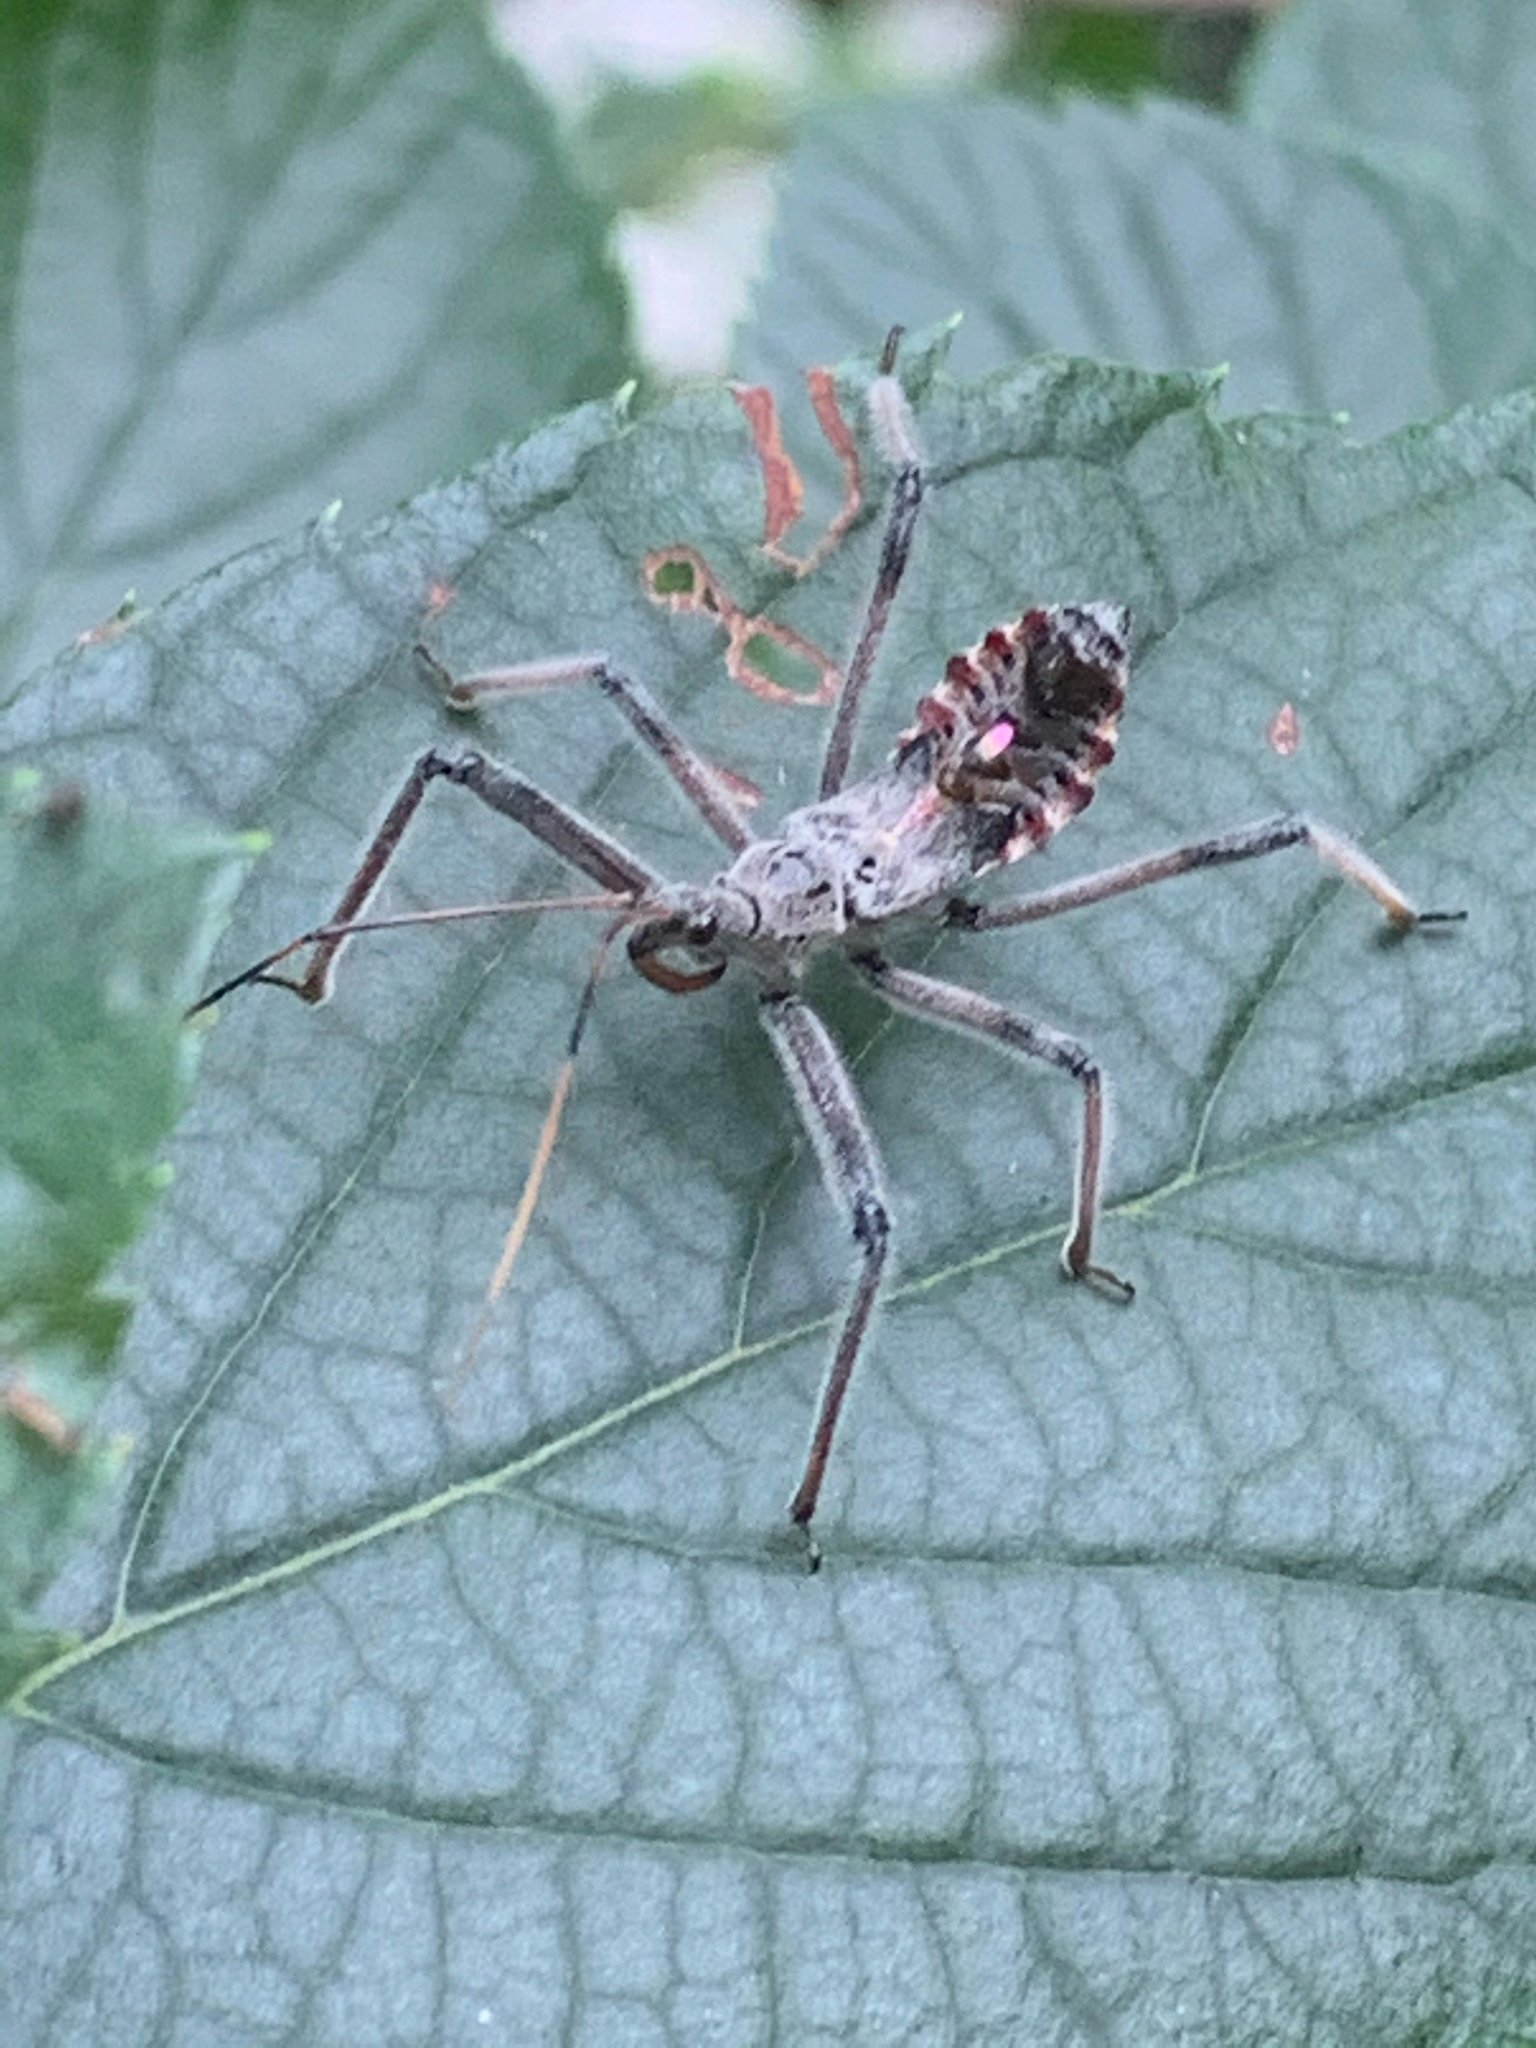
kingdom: Animalia
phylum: Arthropoda
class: Insecta
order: Hemiptera
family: Reduviidae
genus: Arilus
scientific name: Arilus cristatus
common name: North american wheel bug
